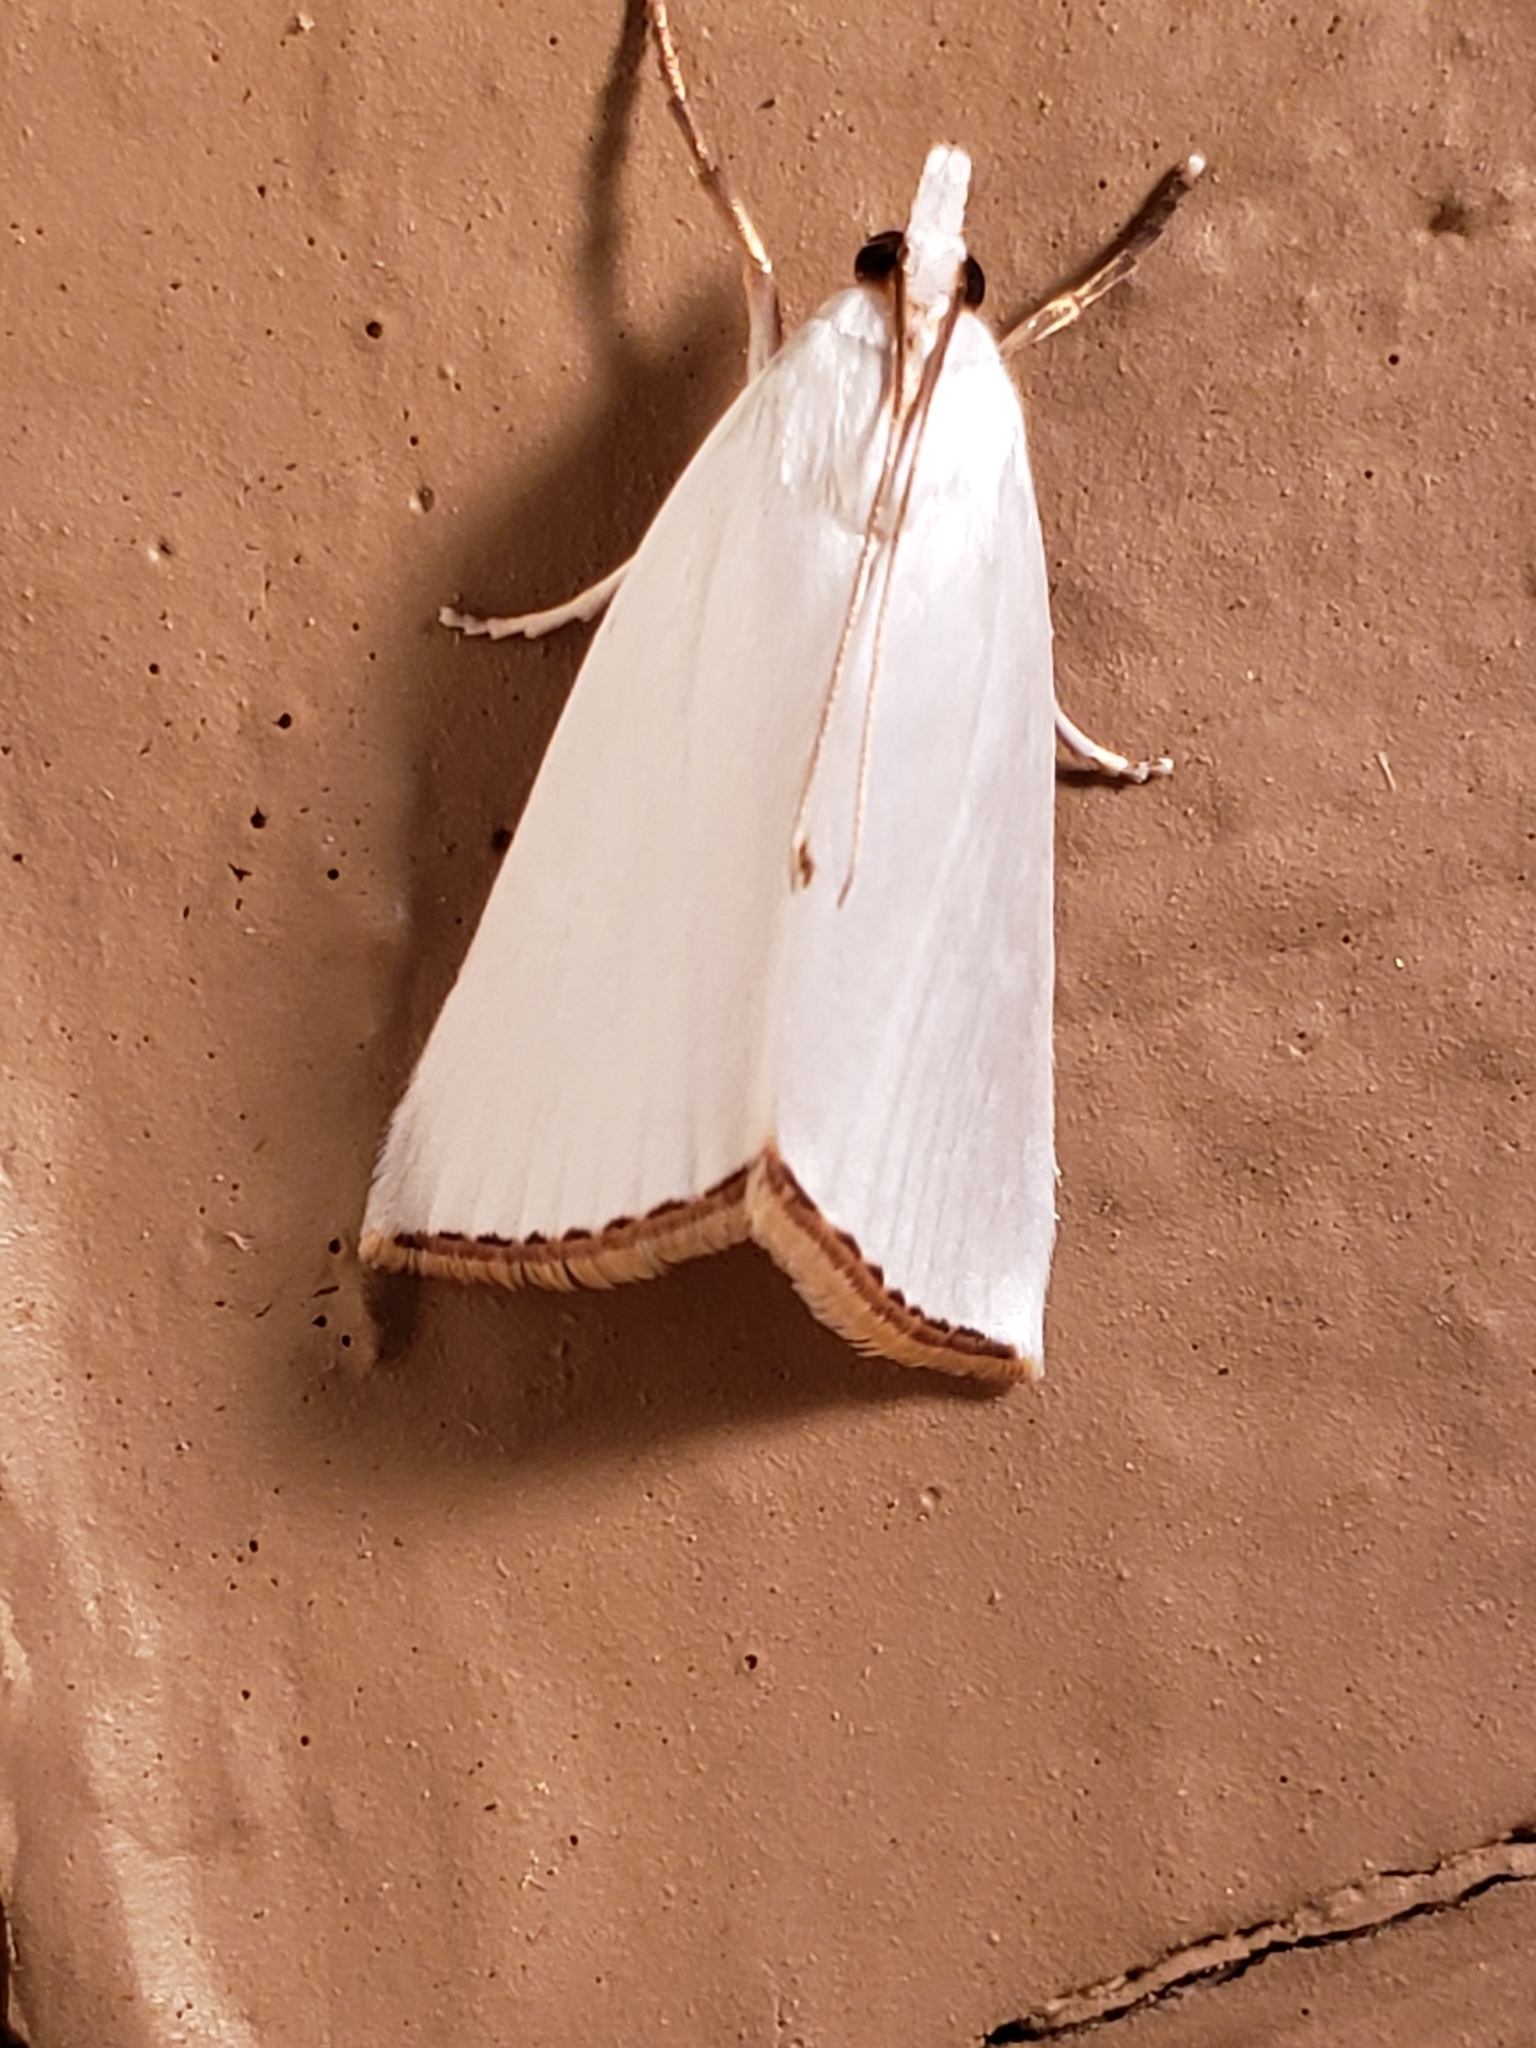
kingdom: Animalia
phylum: Arthropoda
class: Insecta
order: Lepidoptera
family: Crambidae
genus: Argyria
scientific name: Argyria nivalis
